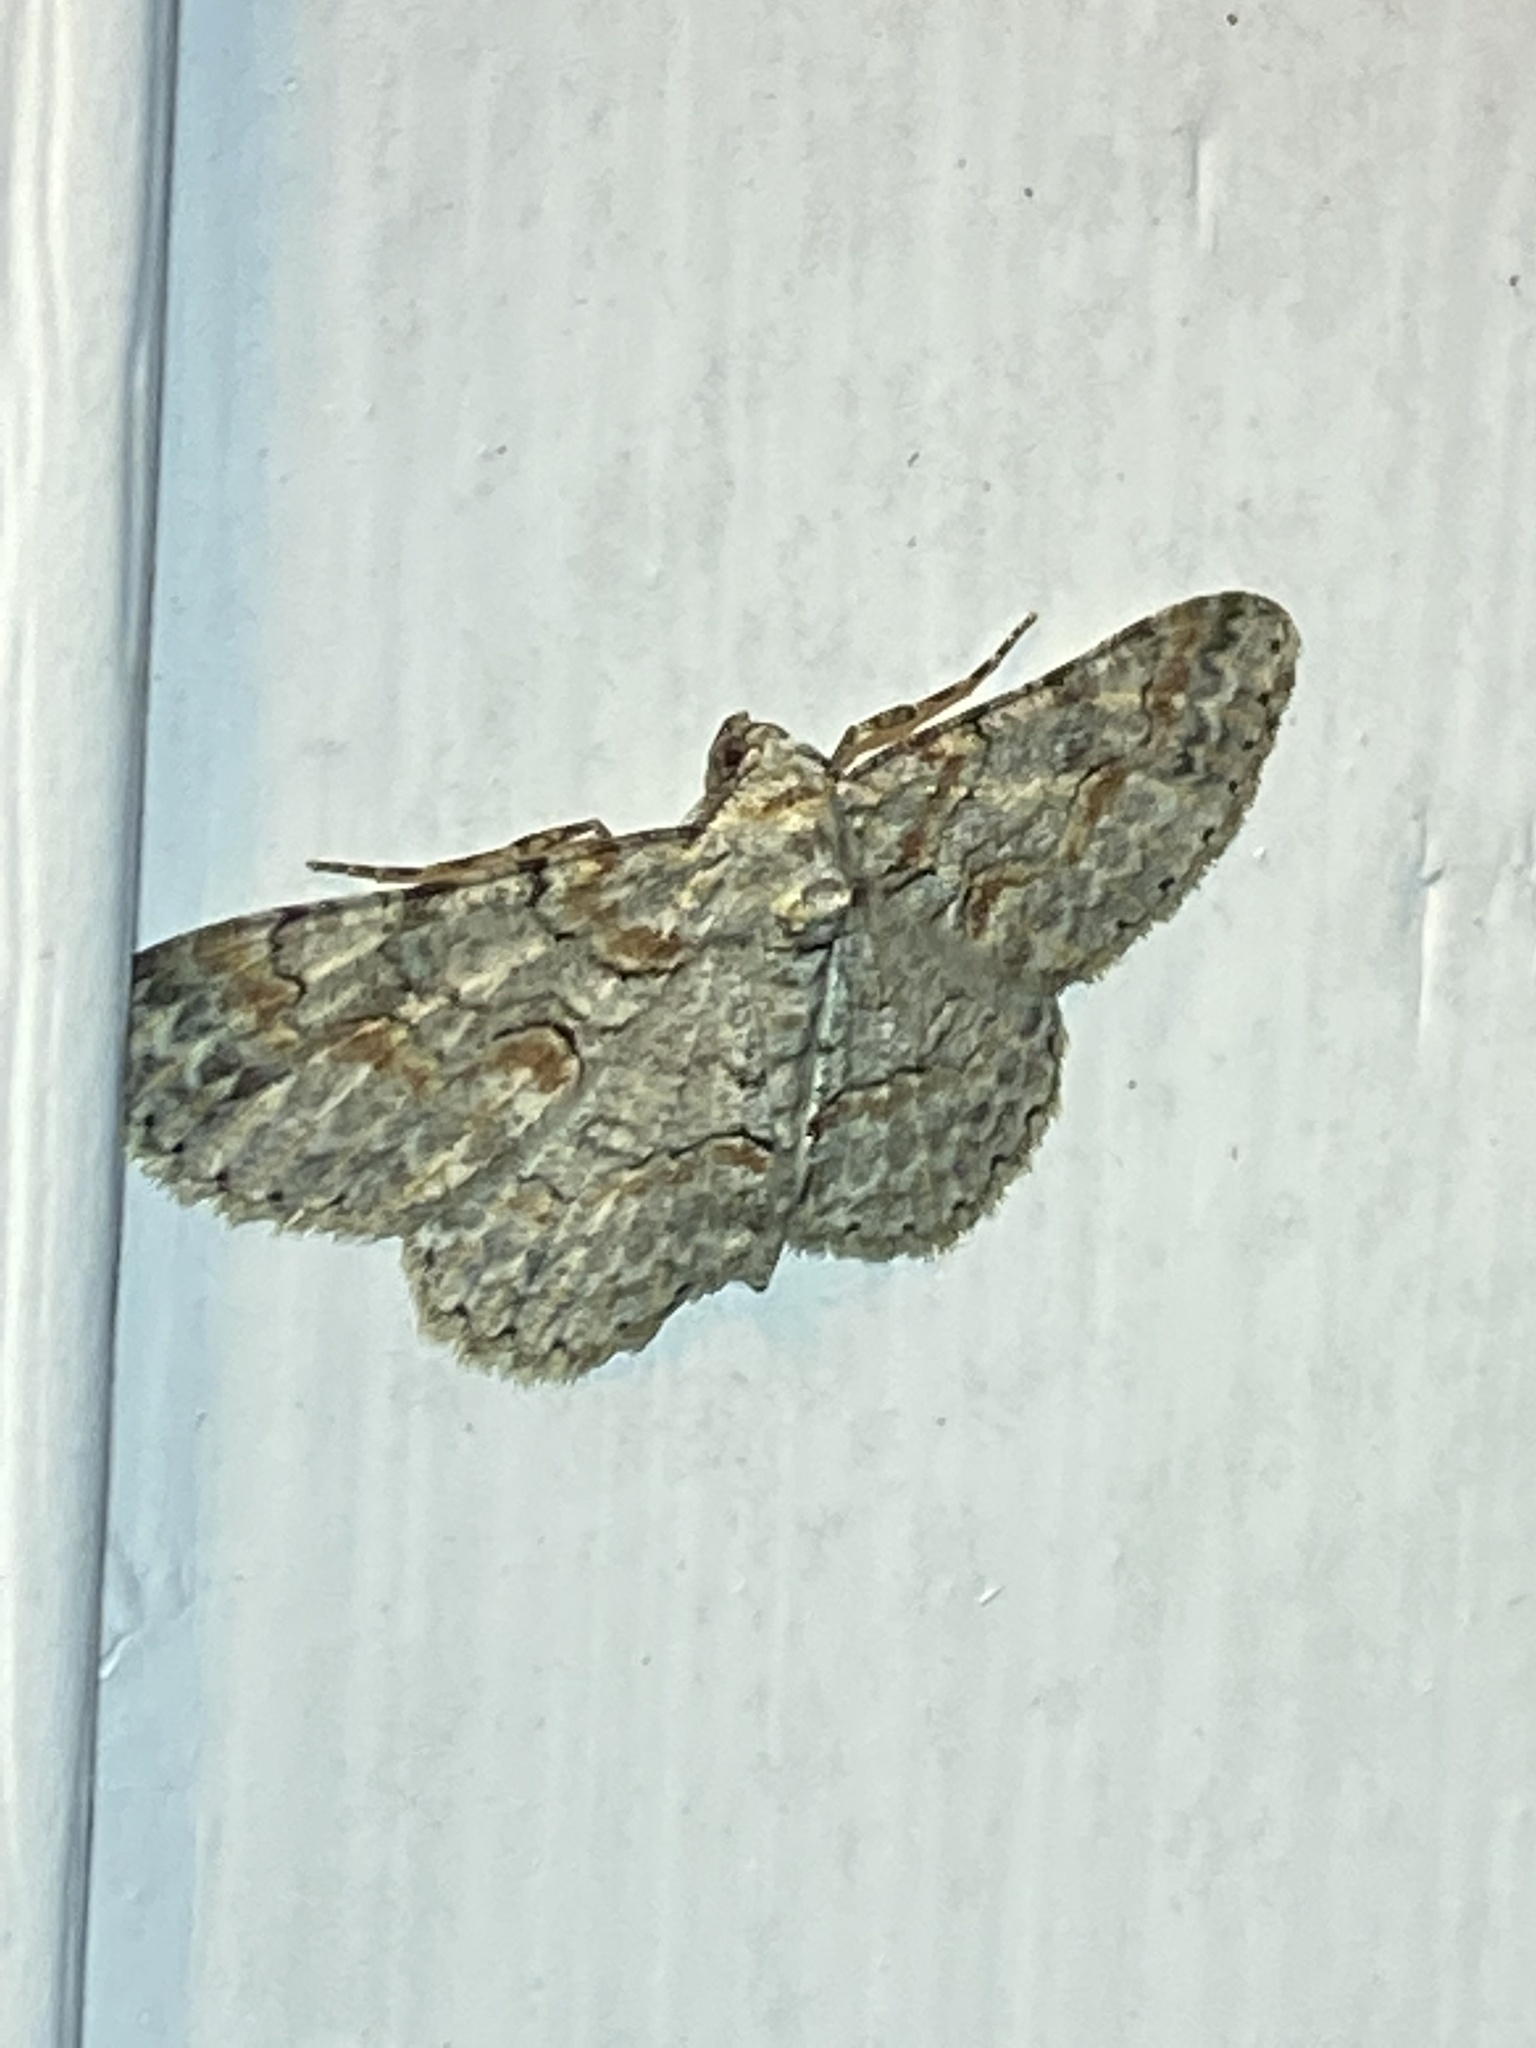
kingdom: Animalia
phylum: Arthropoda
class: Insecta
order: Lepidoptera
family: Geometridae
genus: Iridopsis
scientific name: Iridopsis defectaria
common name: Brown-shaded gray
